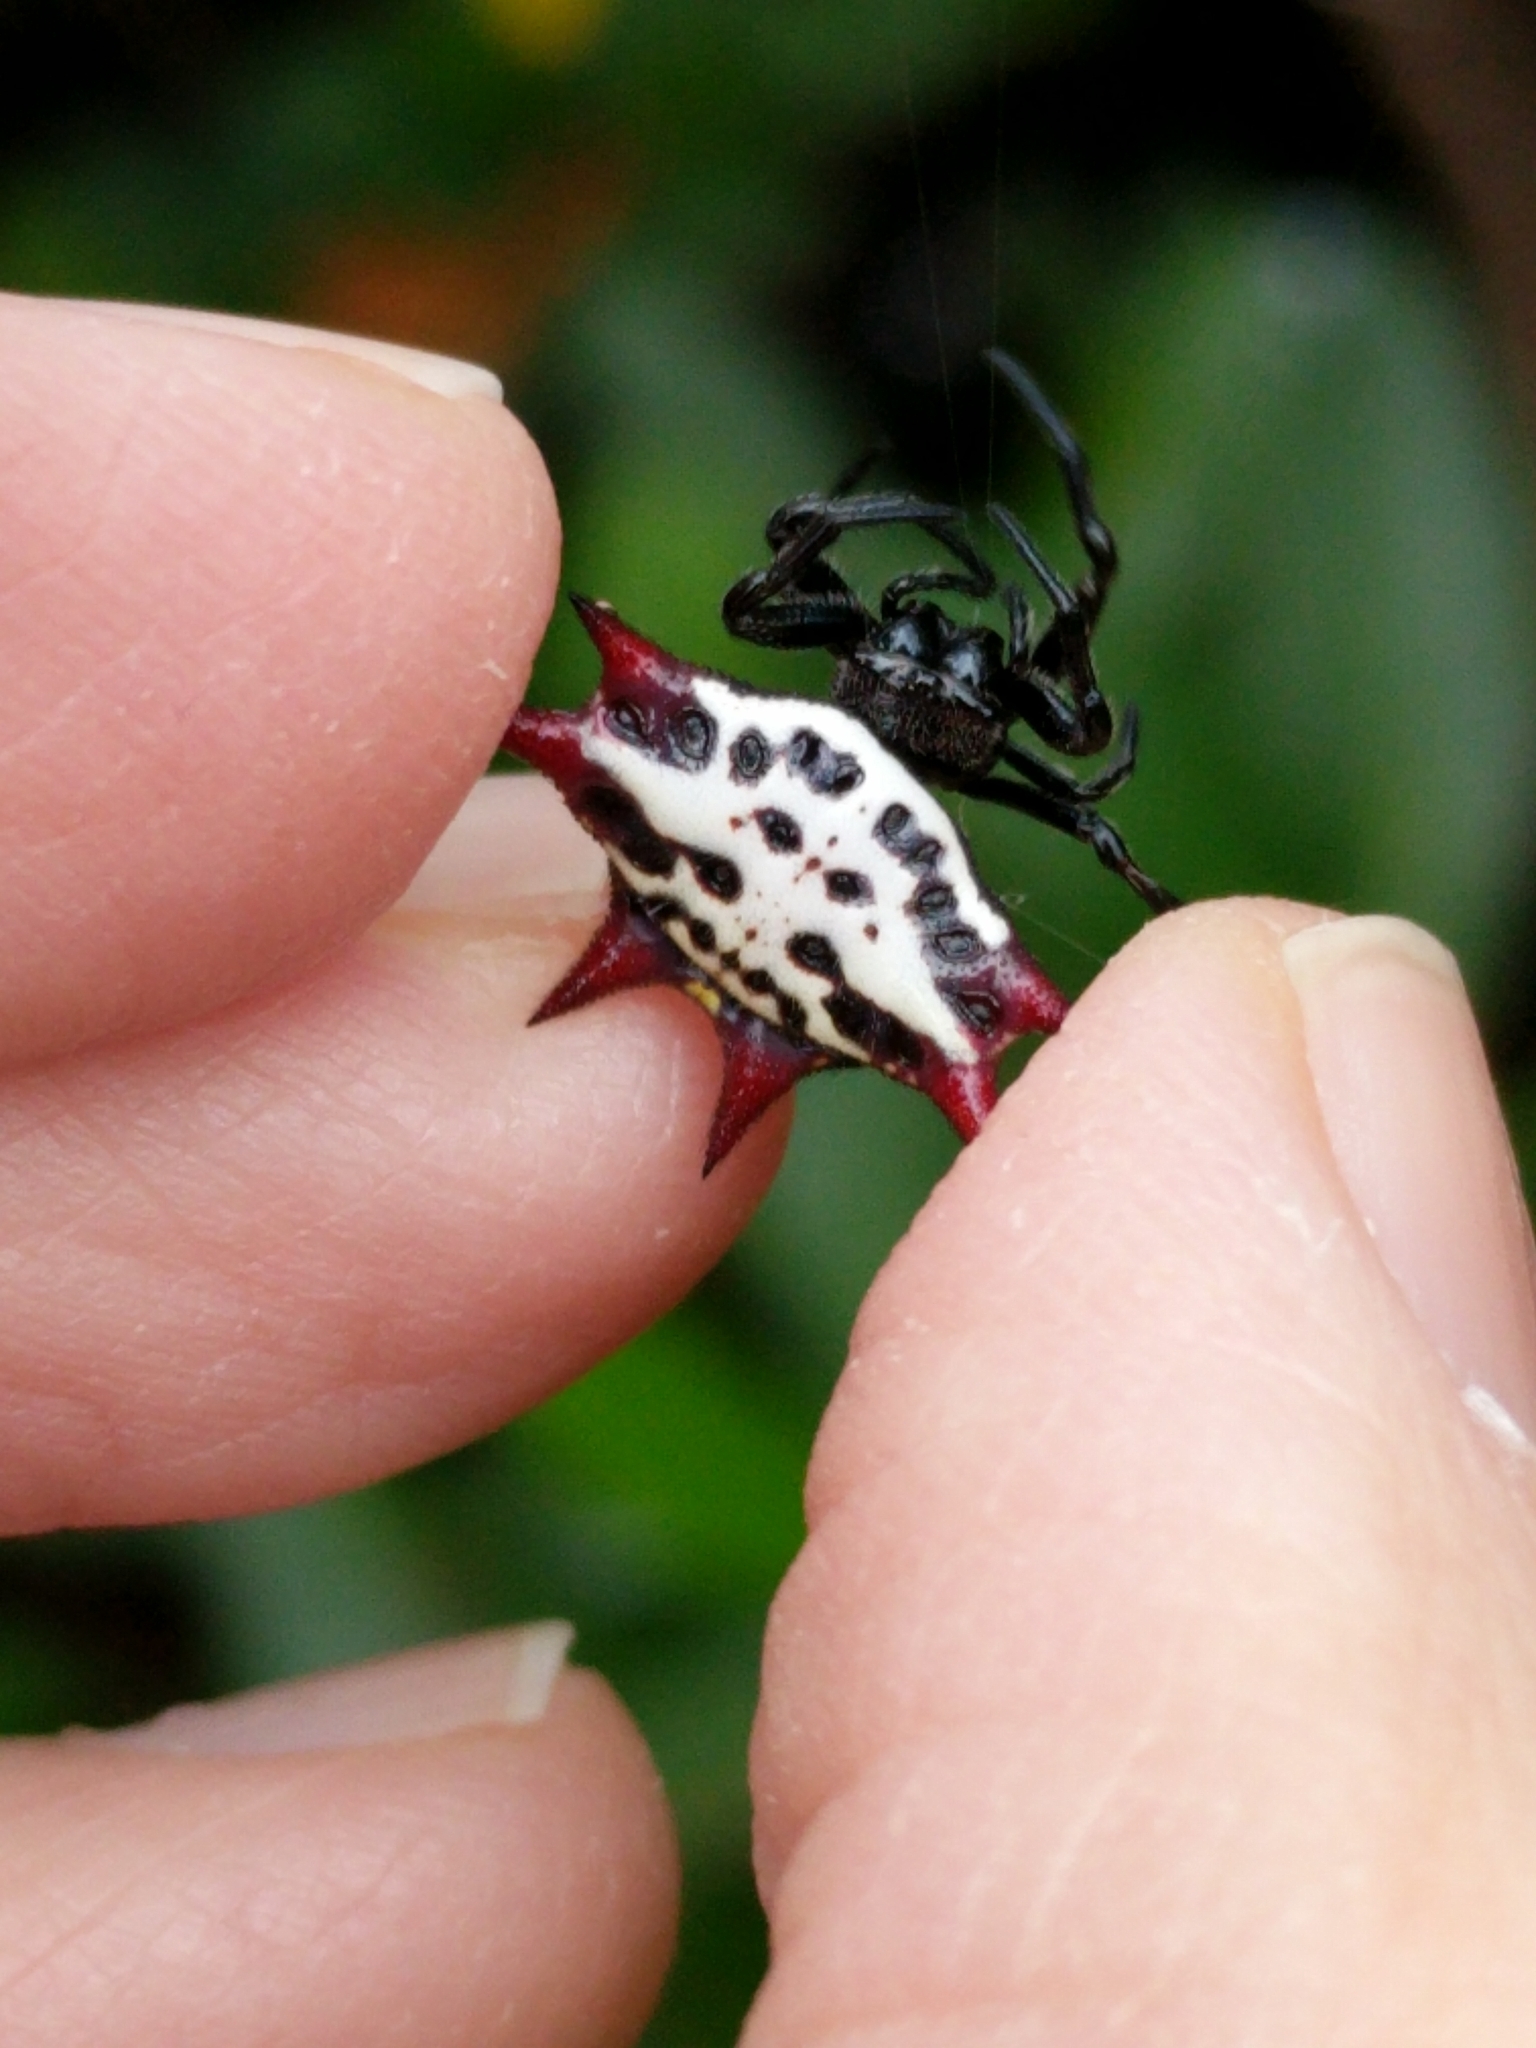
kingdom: Animalia
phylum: Arthropoda
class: Arachnida
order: Araneae
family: Araneidae
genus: Gasteracantha
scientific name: Gasteracantha cancriformis
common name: Orb weavers
